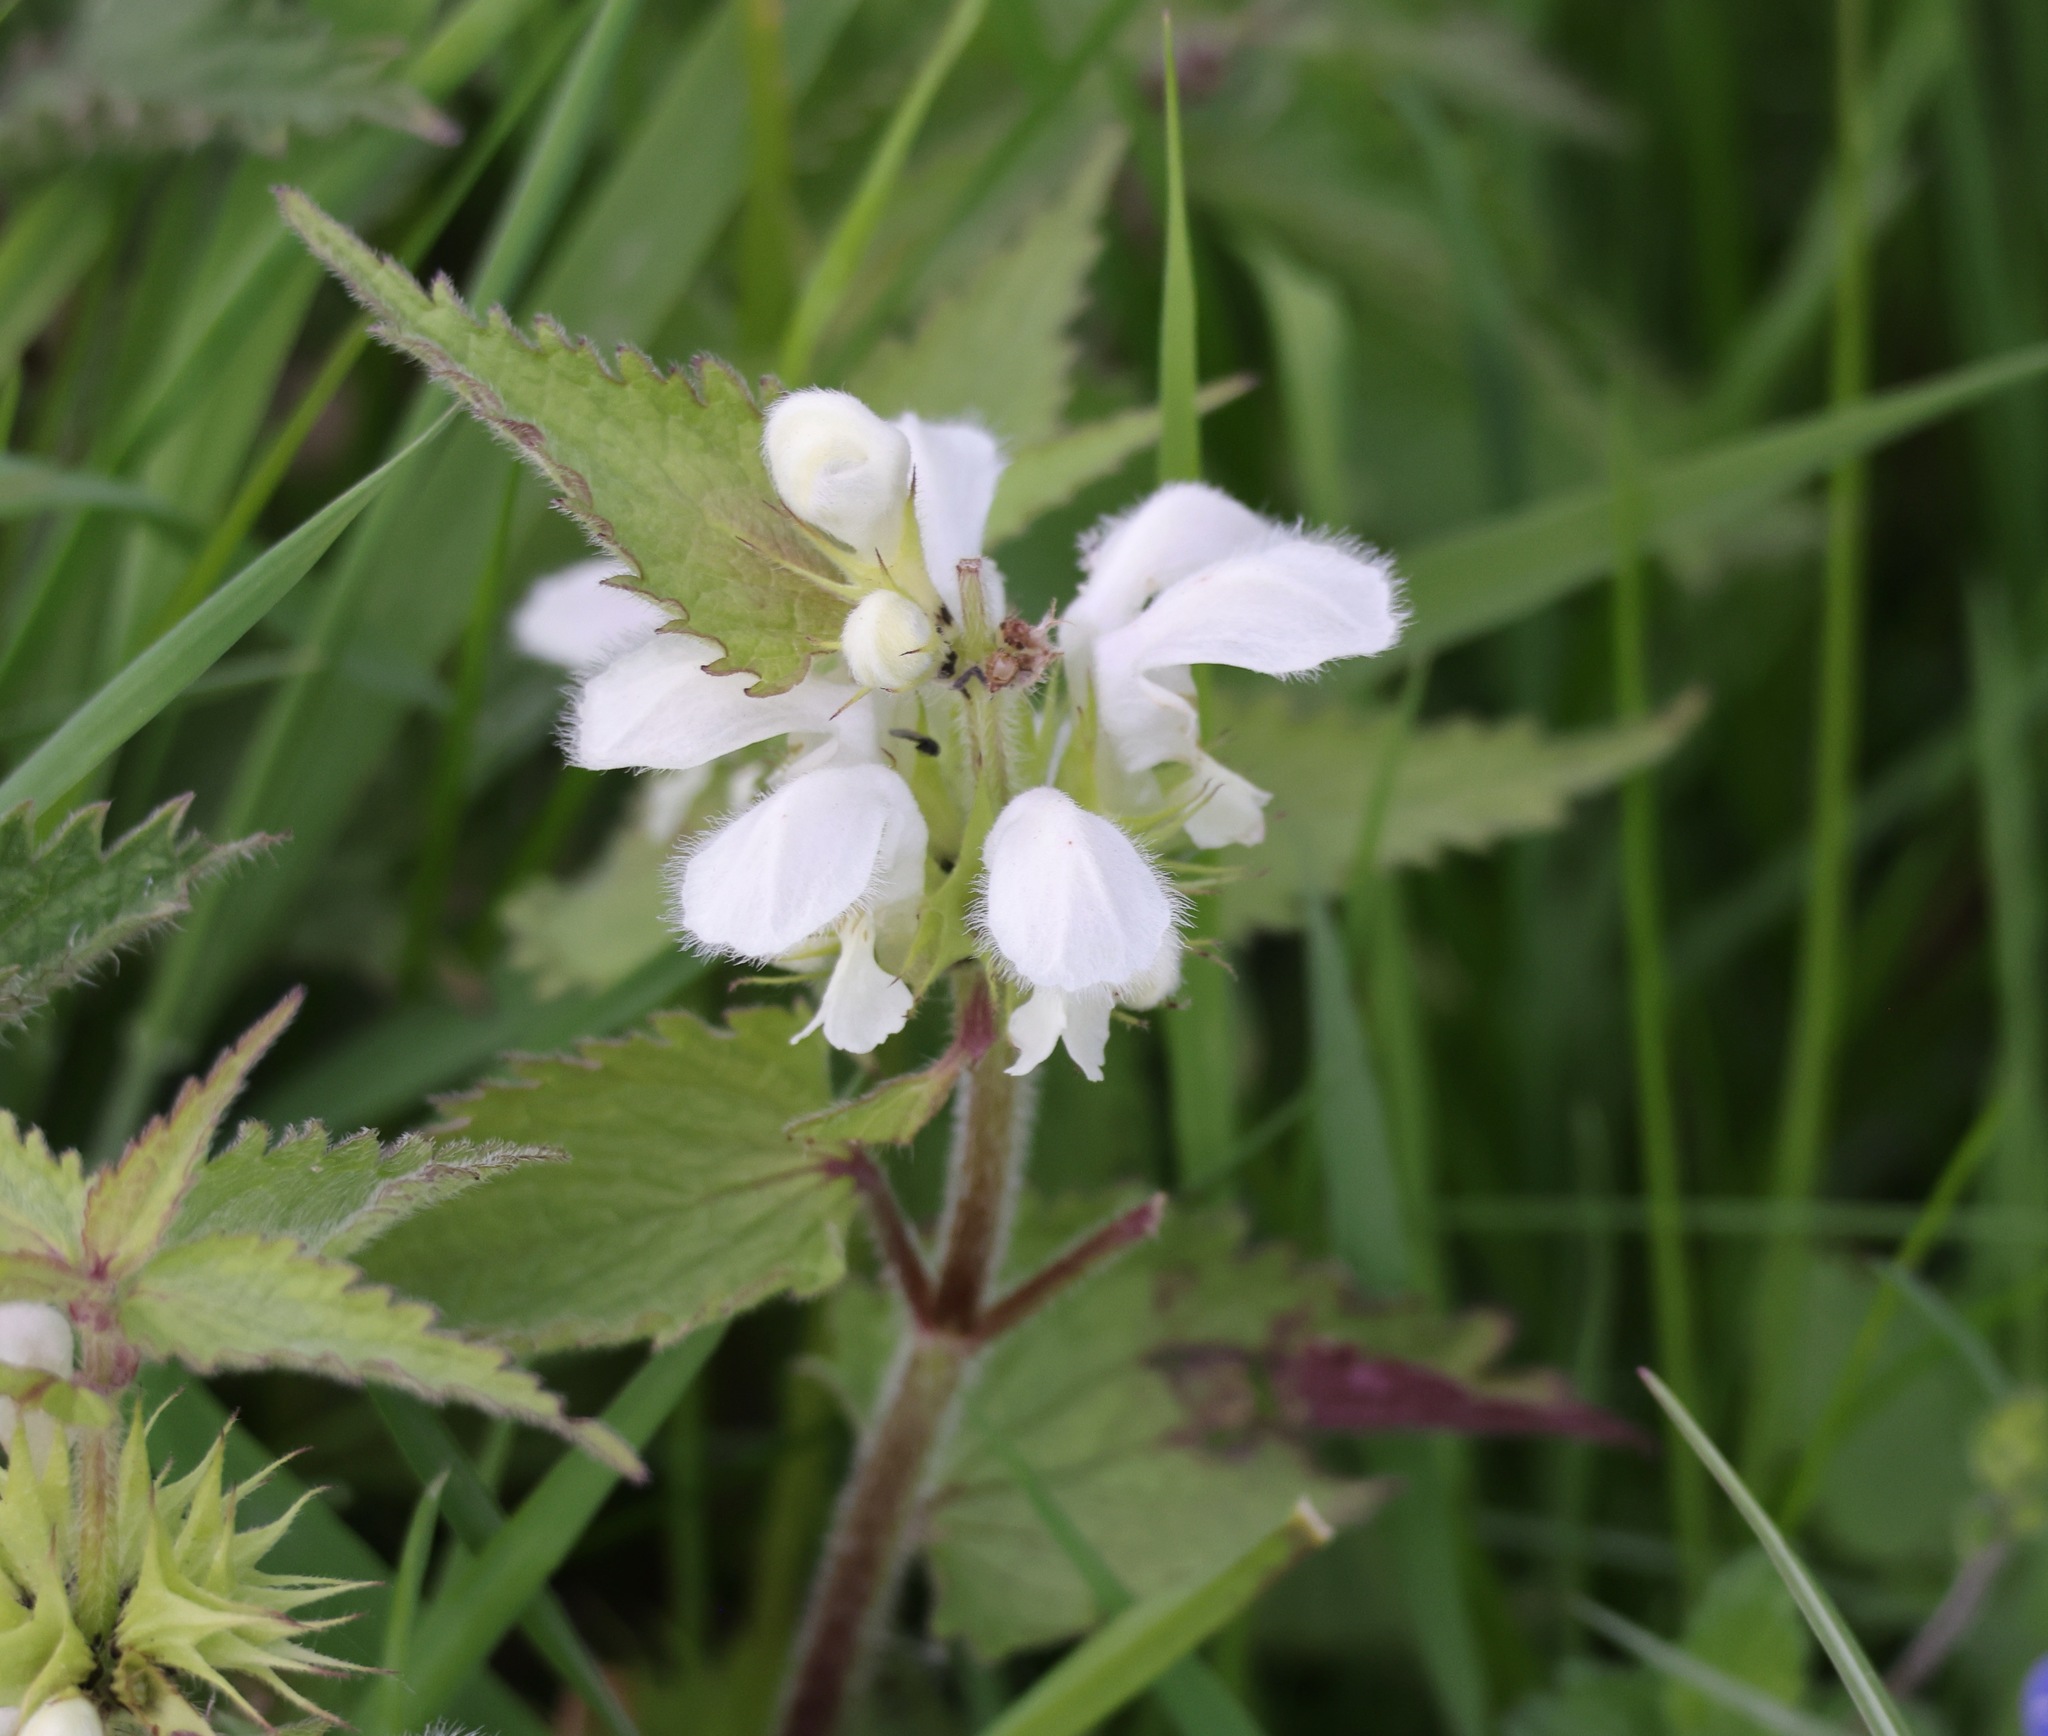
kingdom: Plantae
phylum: Tracheophyta
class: Magnoliopsida
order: Lamiales
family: Lamiaceae
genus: Lamium
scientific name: Lamium album
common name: White dead-nettle
